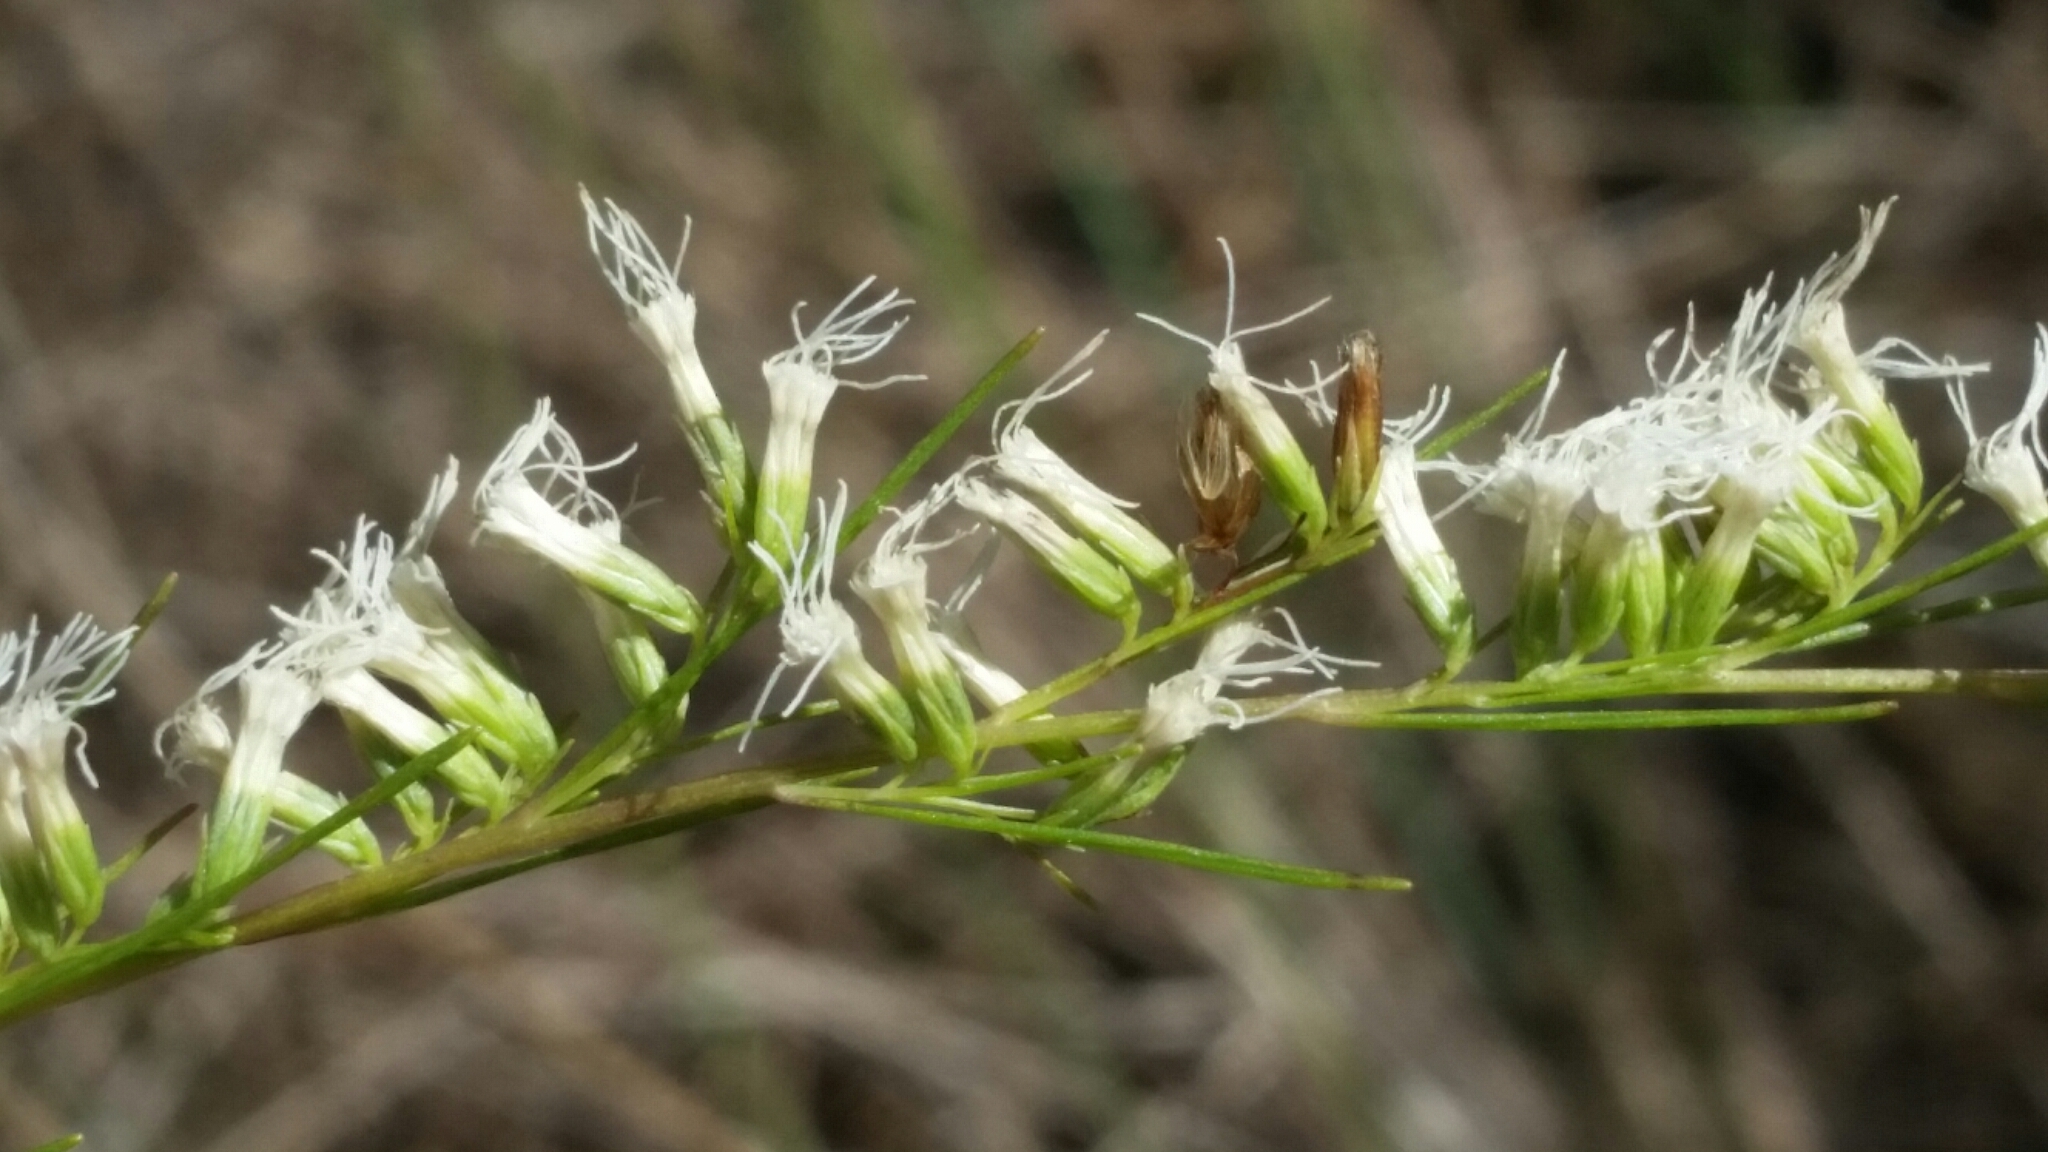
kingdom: Plantae
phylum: Tracheophyta
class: Magnoliopsida
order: Asterales
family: Asteraceae
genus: Eupatorium
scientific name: Eupatorium leptophyllum
